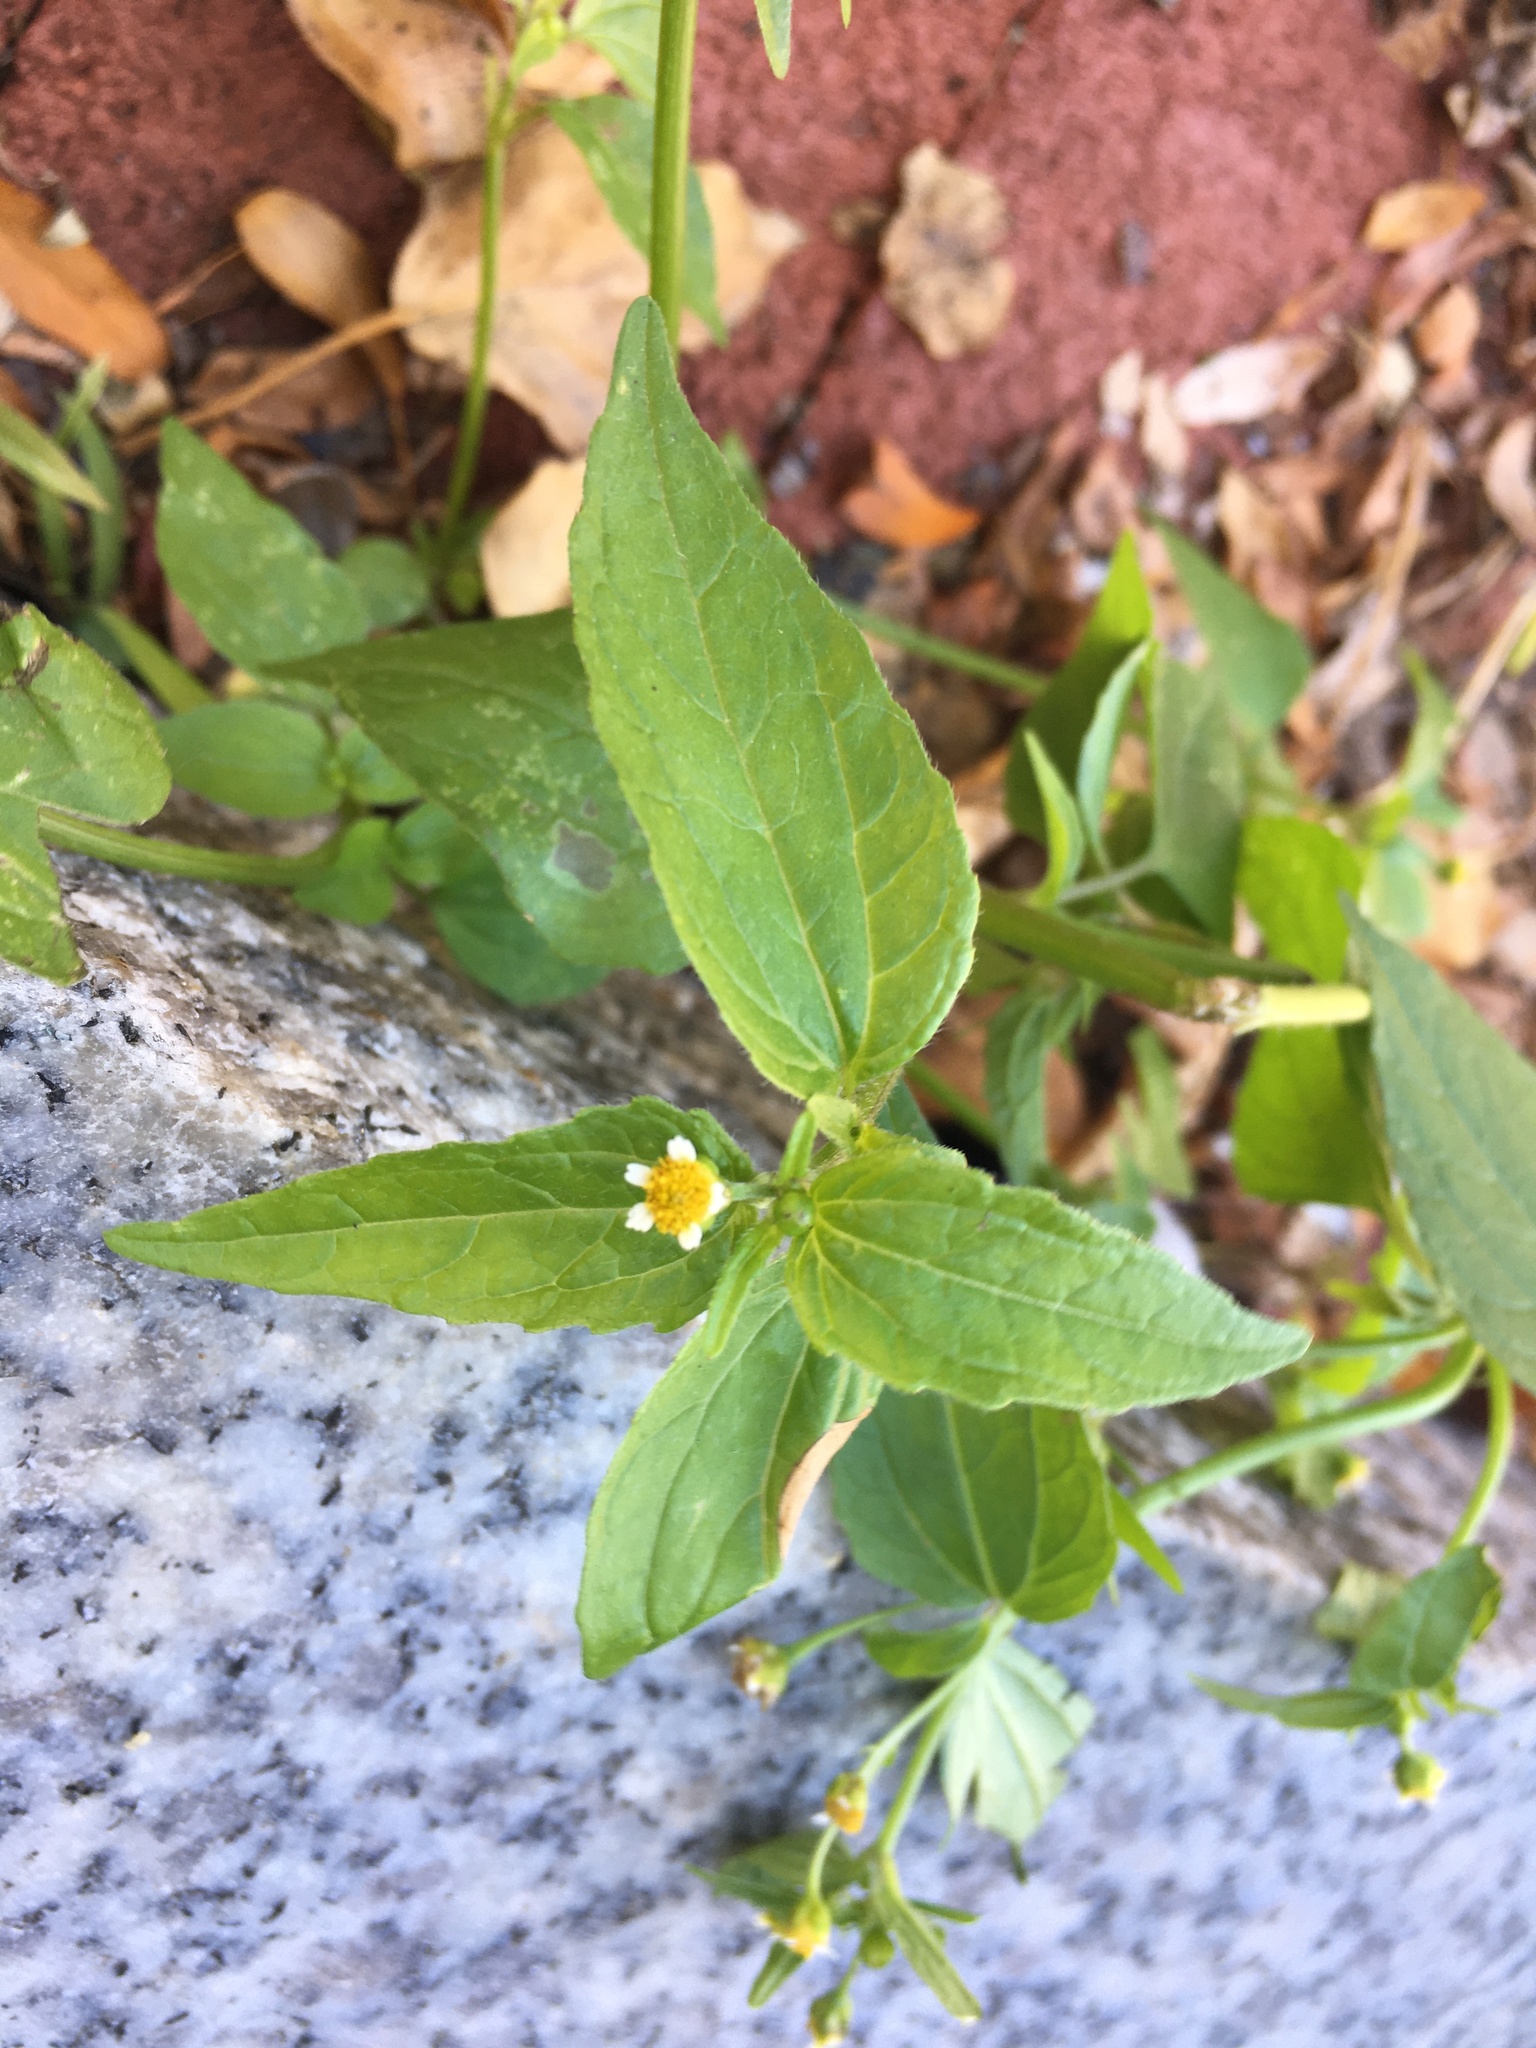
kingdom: Plantae
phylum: Tracheophyta
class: Magnoliopsida
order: Asterales
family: Asteraceae
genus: Galinsoga
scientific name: Galinsoga quadriradiata
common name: Shaggy soldier
